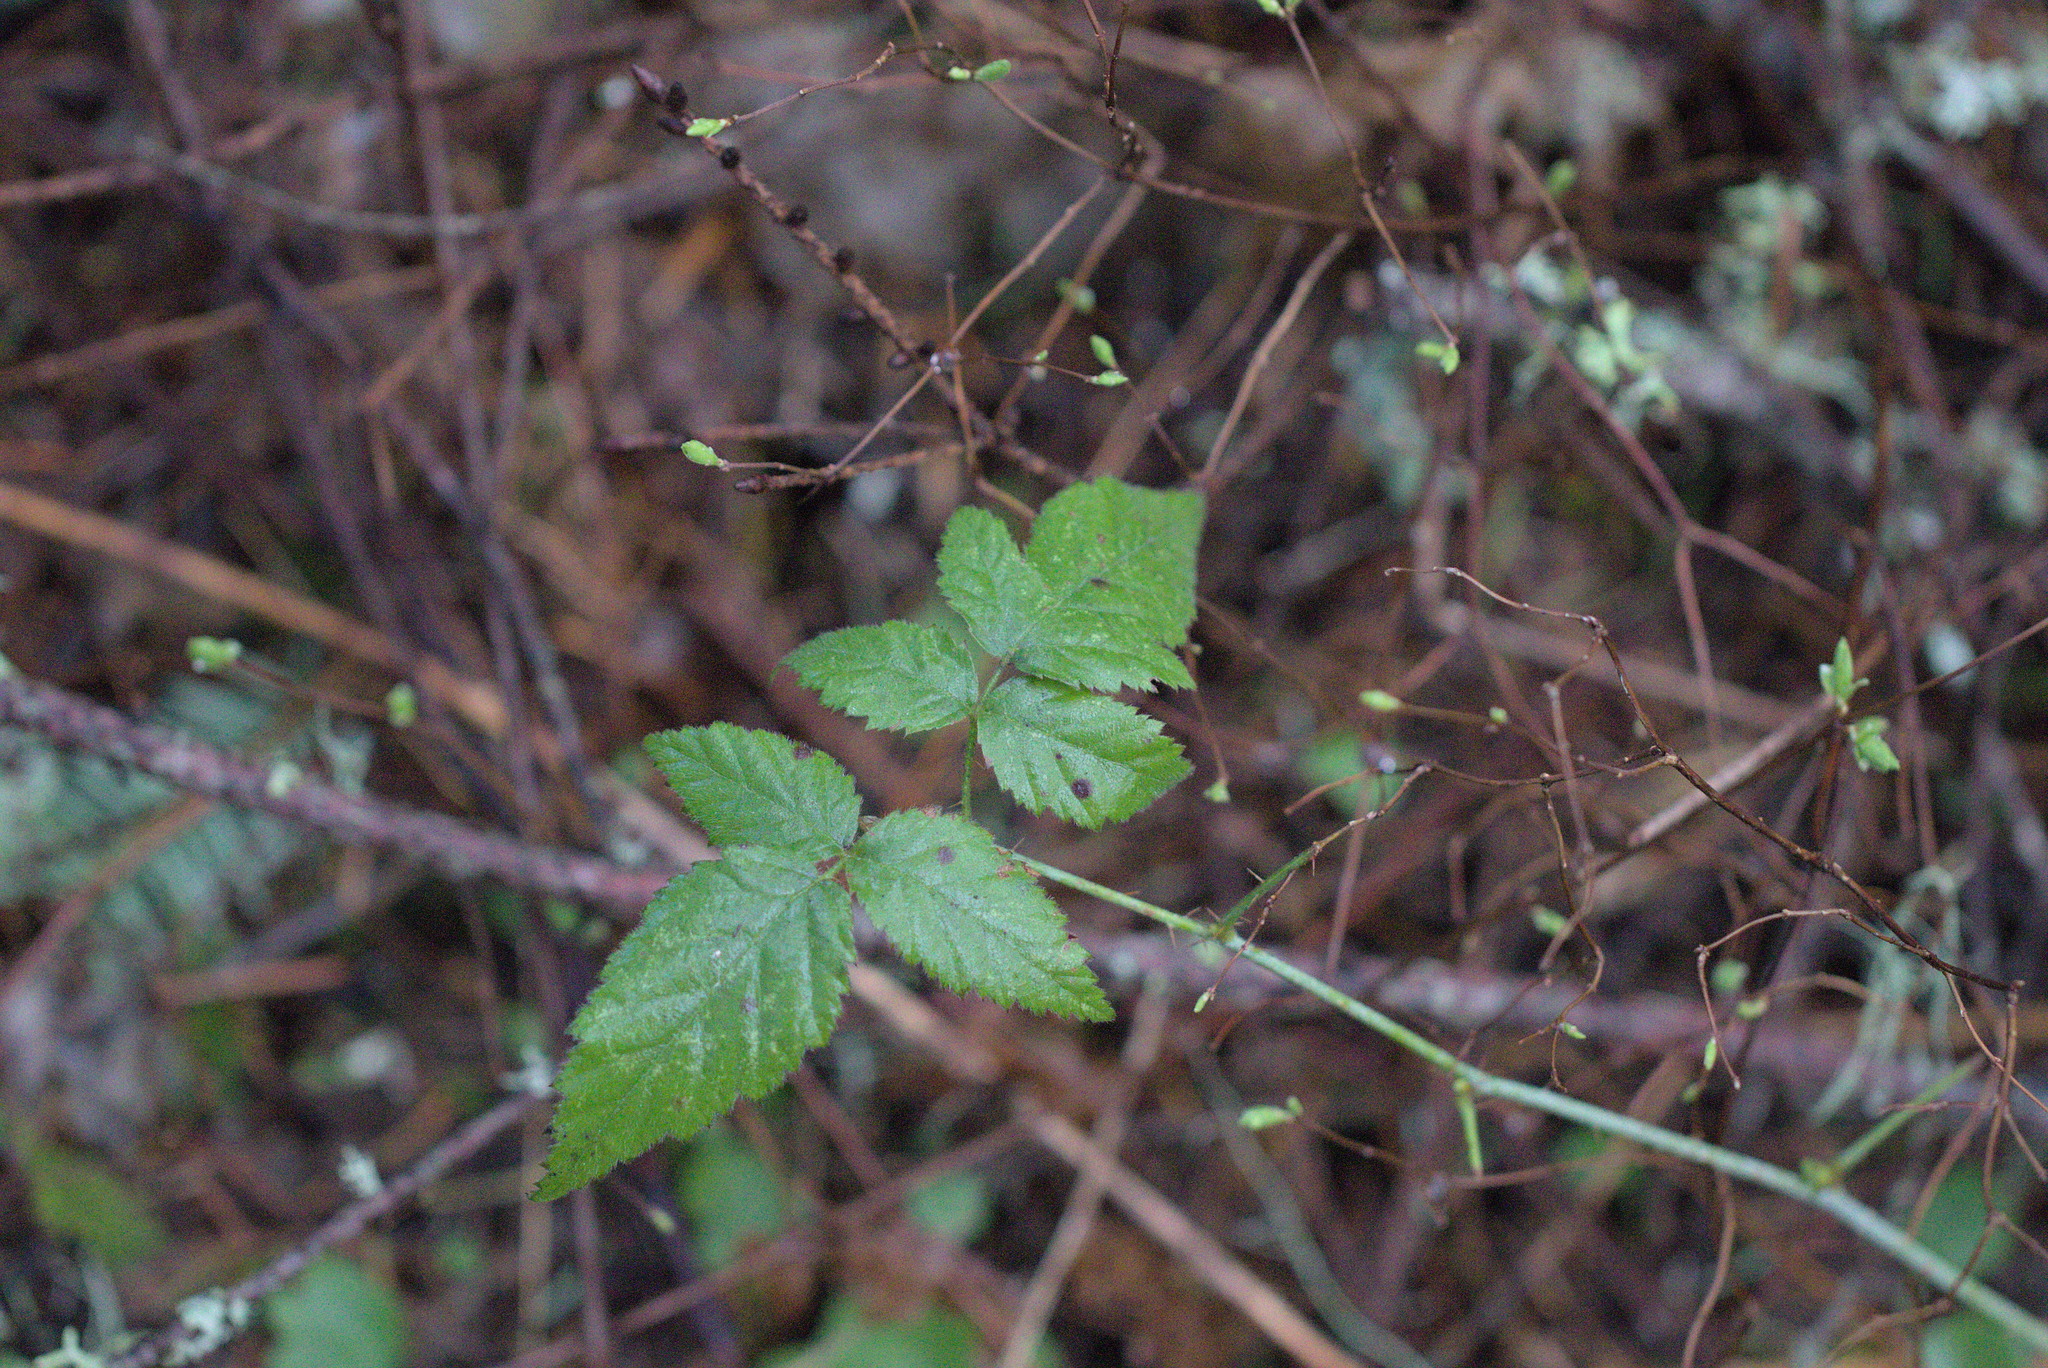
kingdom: Plantae
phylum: Tracheophyta
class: Magnoliopsida
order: Rosales
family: Rosaceae
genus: Rubus
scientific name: Rubus ursinus
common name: Pacific blackberry
